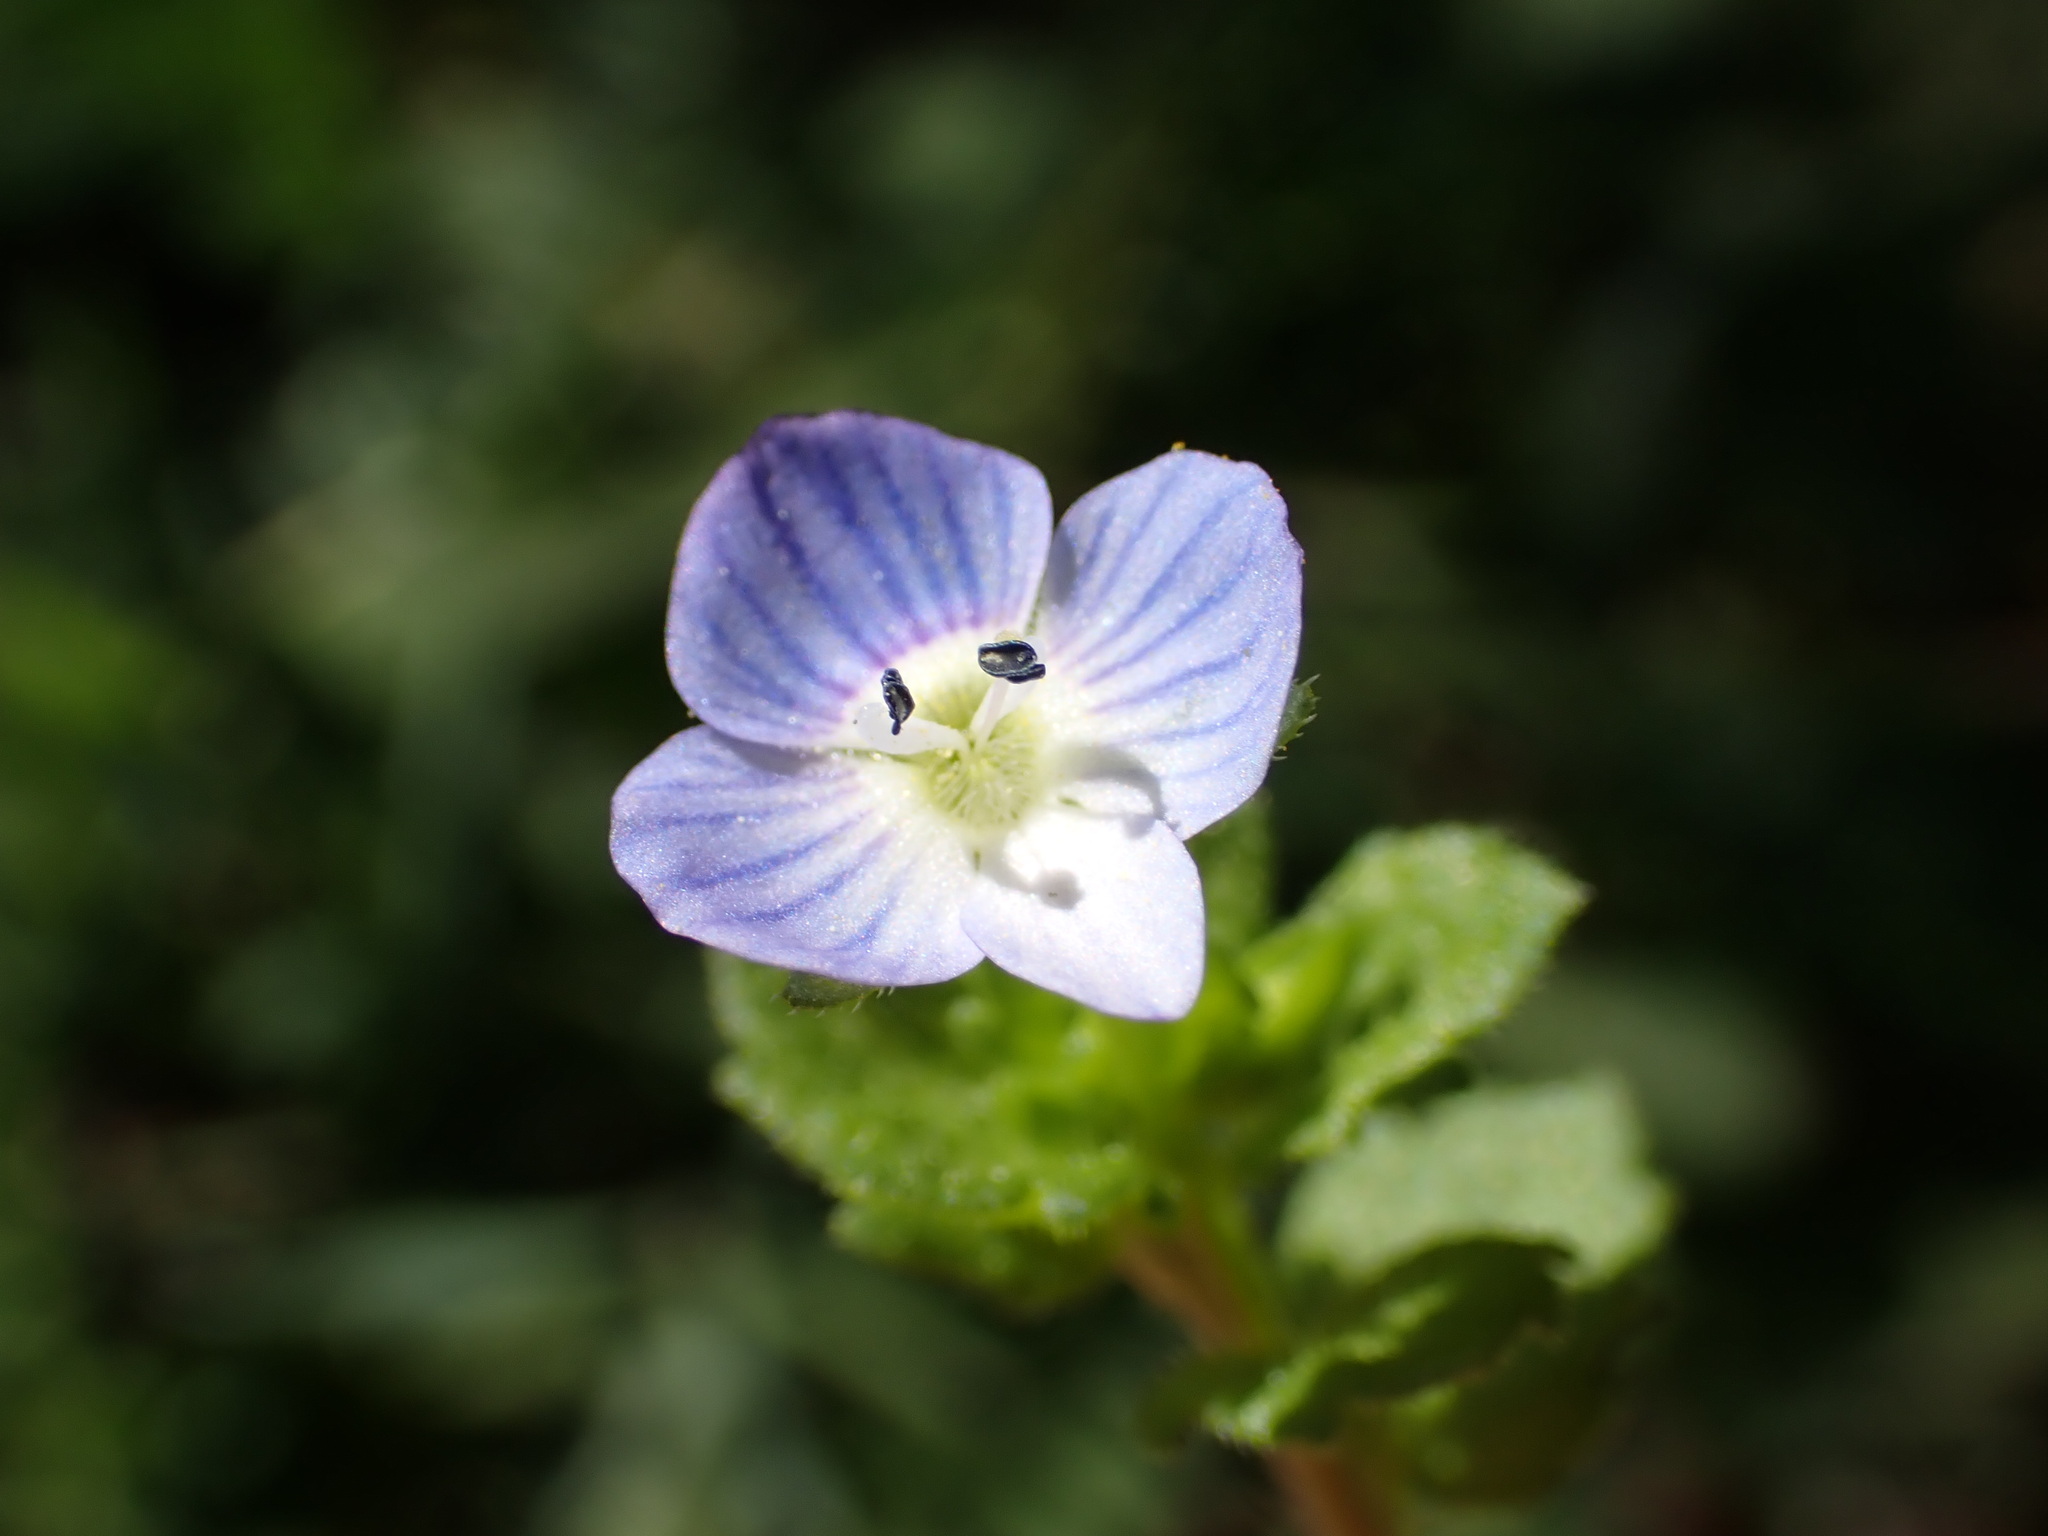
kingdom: Plantae
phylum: Tracheophyta
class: Magnoliopsida
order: Lamiales
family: Plantaginaceae
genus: Veronica
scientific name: Veronica persica
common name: Common field-speedwell
